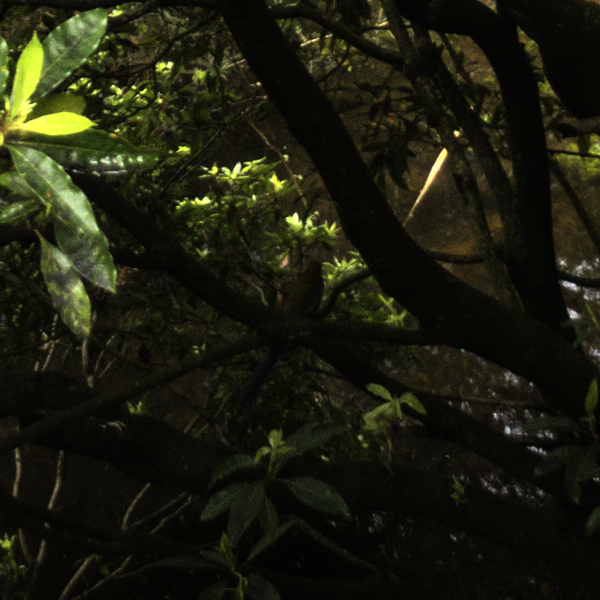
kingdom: Animalia
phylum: Chordata
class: Aves
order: Psittaciformes
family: Psittacidae
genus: Platycercus
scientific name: Platycercus elegans
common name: Crimson rosella
